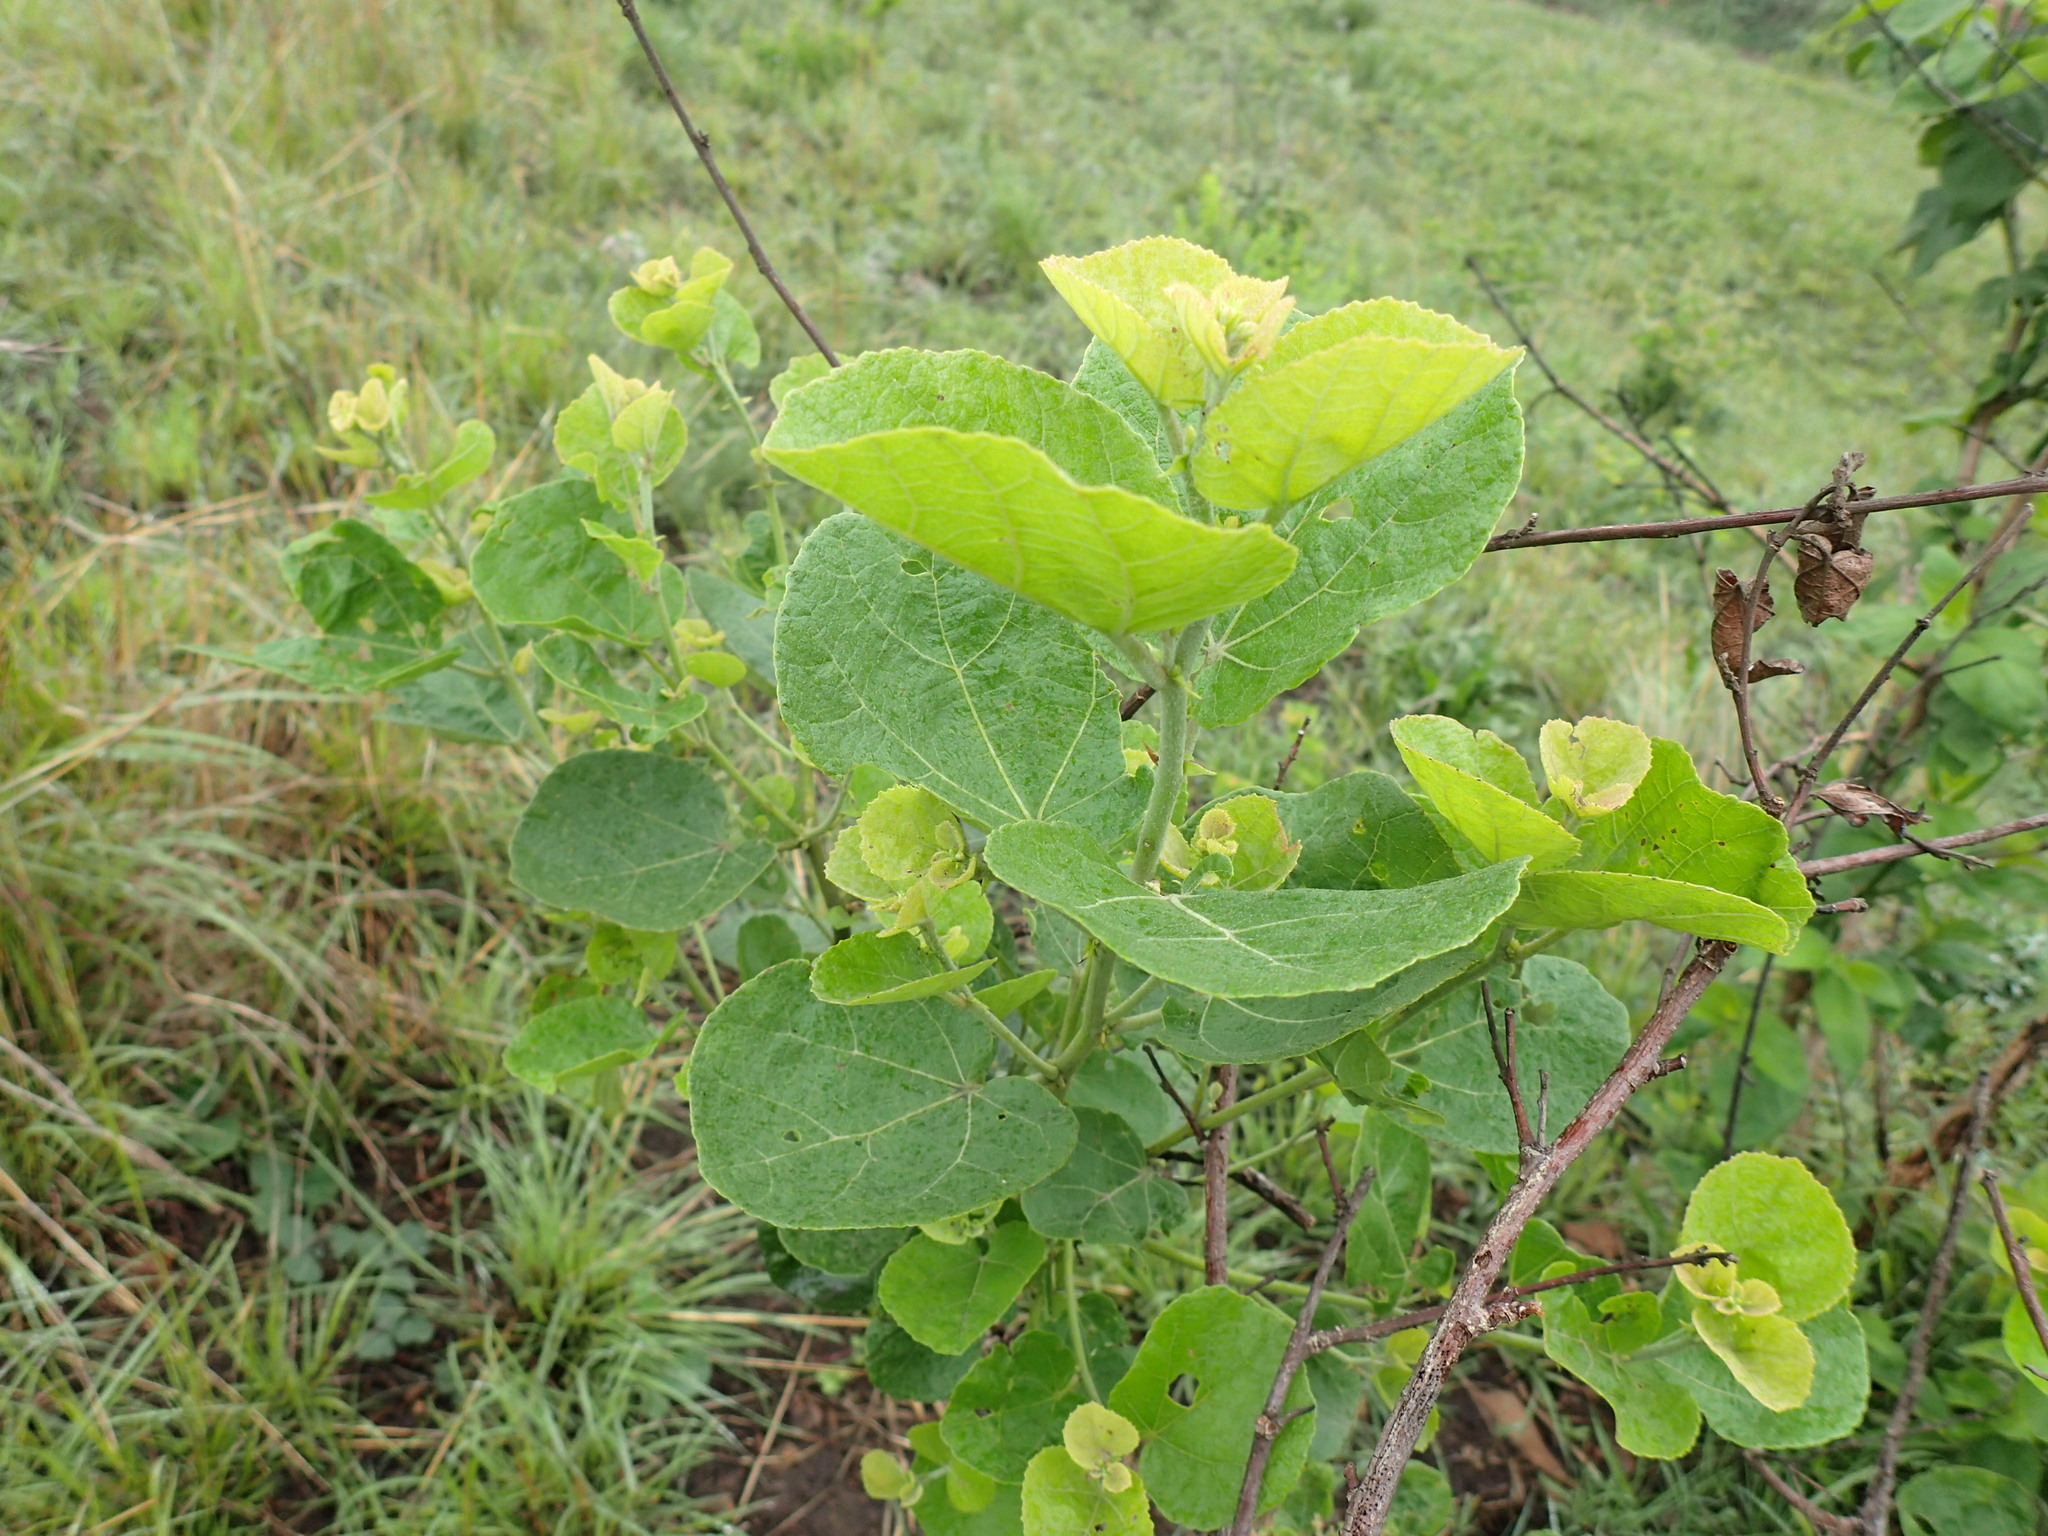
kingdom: Plantae
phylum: Tracheophyta
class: Magnoliopsida
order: Malvales
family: Malvaceae
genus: Dombeya
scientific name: Dombeya rotundifolia
